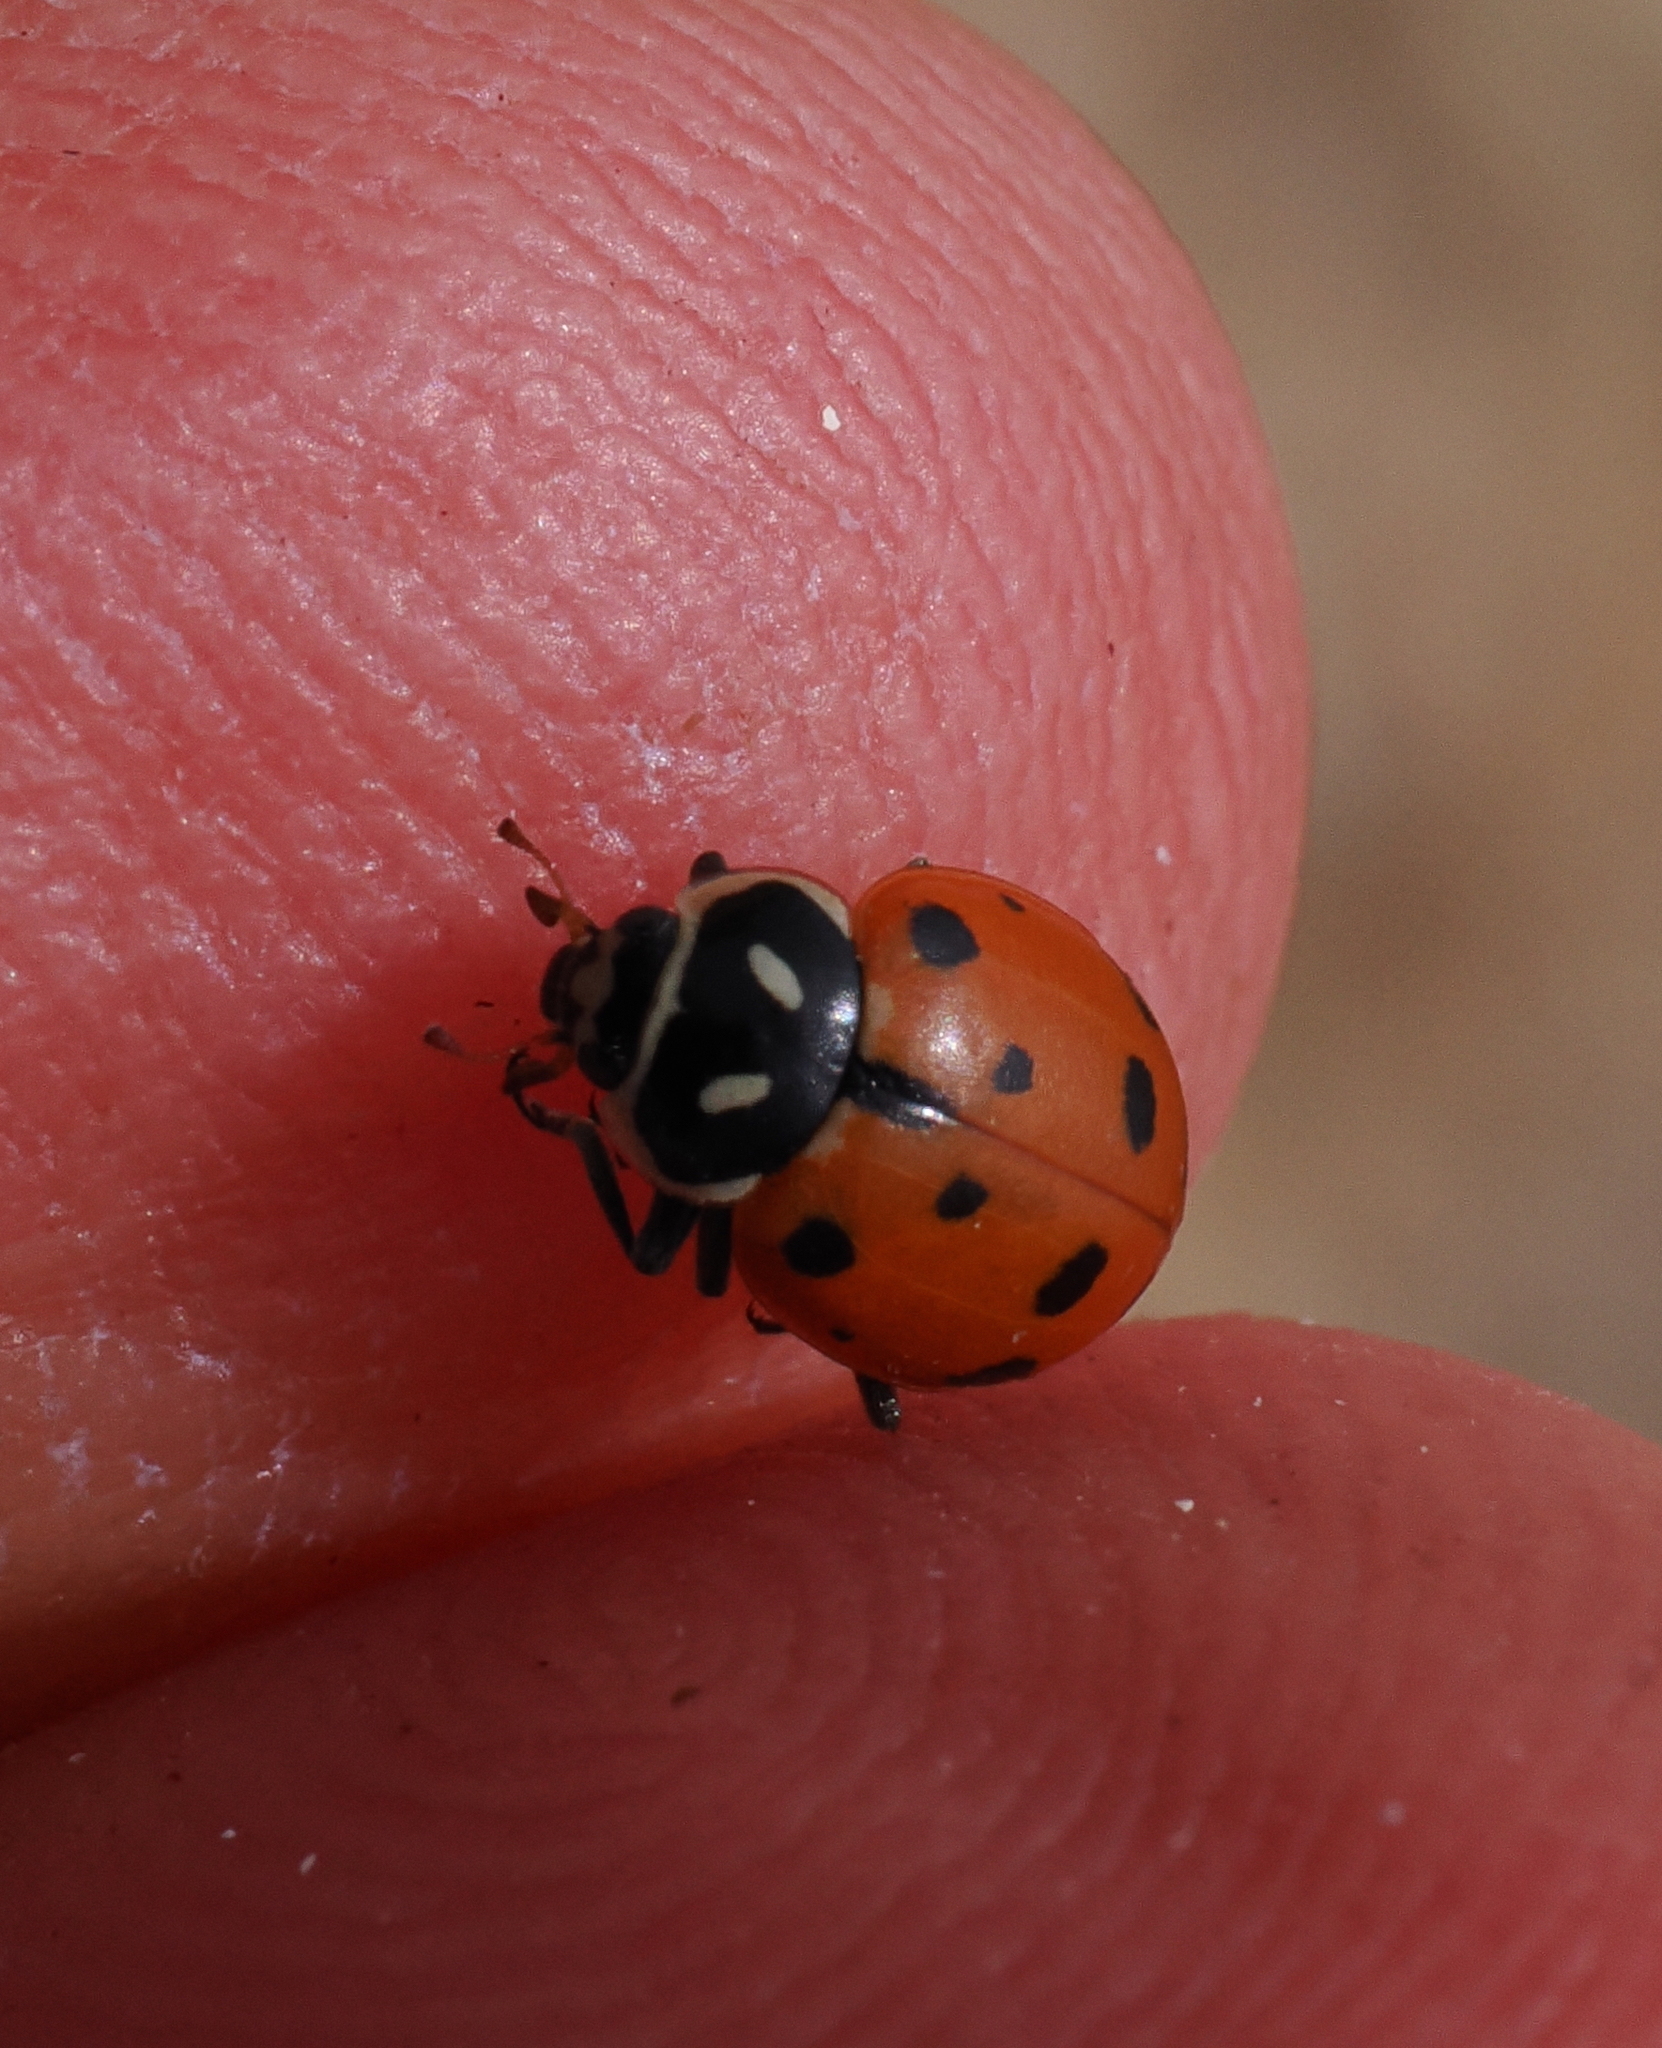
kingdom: Animalia
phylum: Arthropoda
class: Insecta
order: Coleoptera
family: Coccinellidae
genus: Hippodamia
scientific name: Hippodamia convergens
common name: Convergent lady beetle
